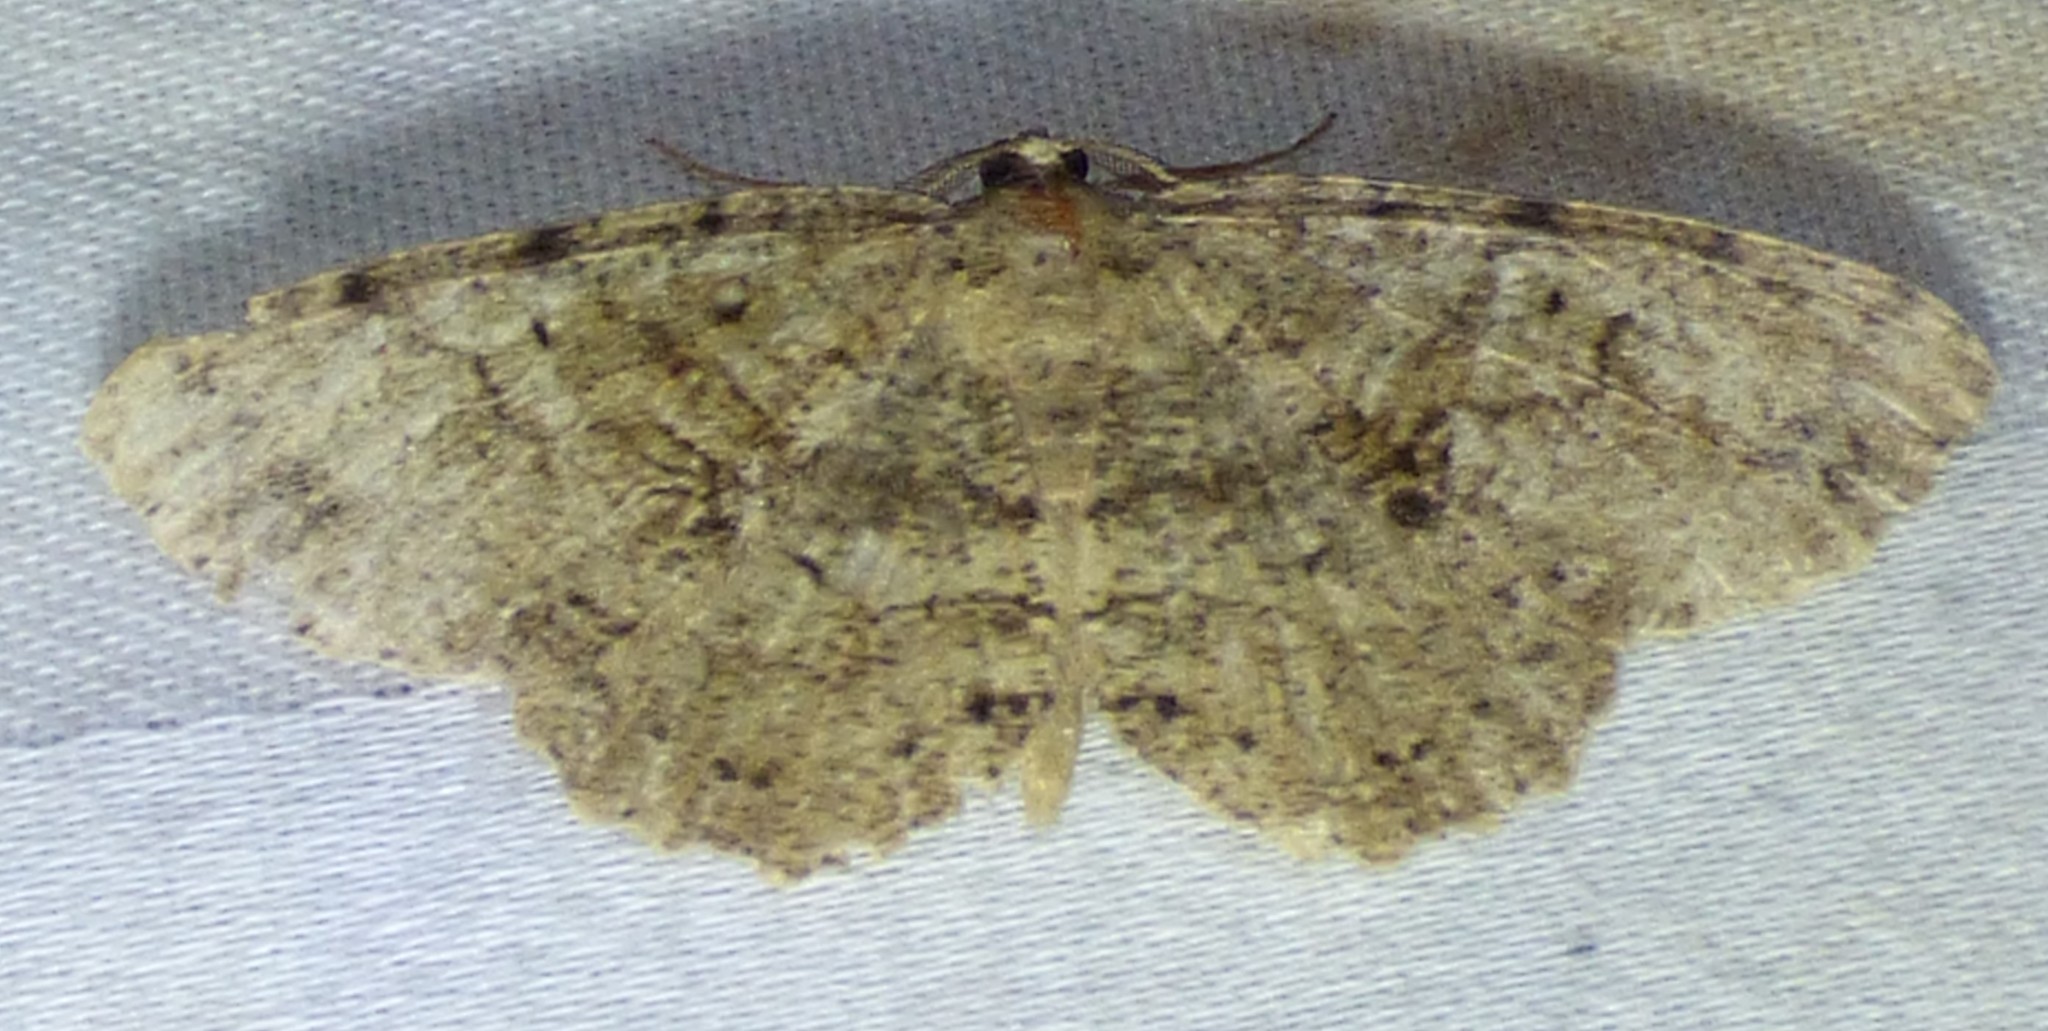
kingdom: Animalia
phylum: Arthropoda
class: Insecta
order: Lepidoptera
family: Geometridae
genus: Melanolophia
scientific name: Melanolophia canadaria
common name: Canadian melanolophia
